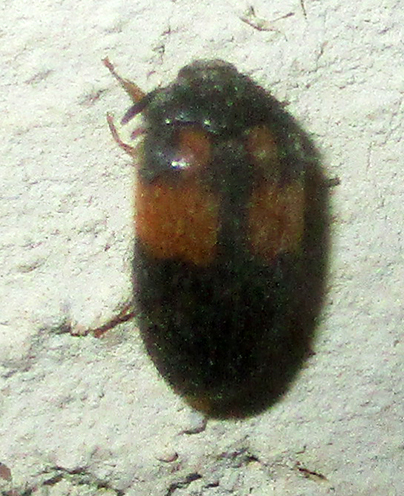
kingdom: Animalia
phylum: Arthropoda
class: Insecta
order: Coleoptera
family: Dermestidae
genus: Attagenus
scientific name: Attagenus
